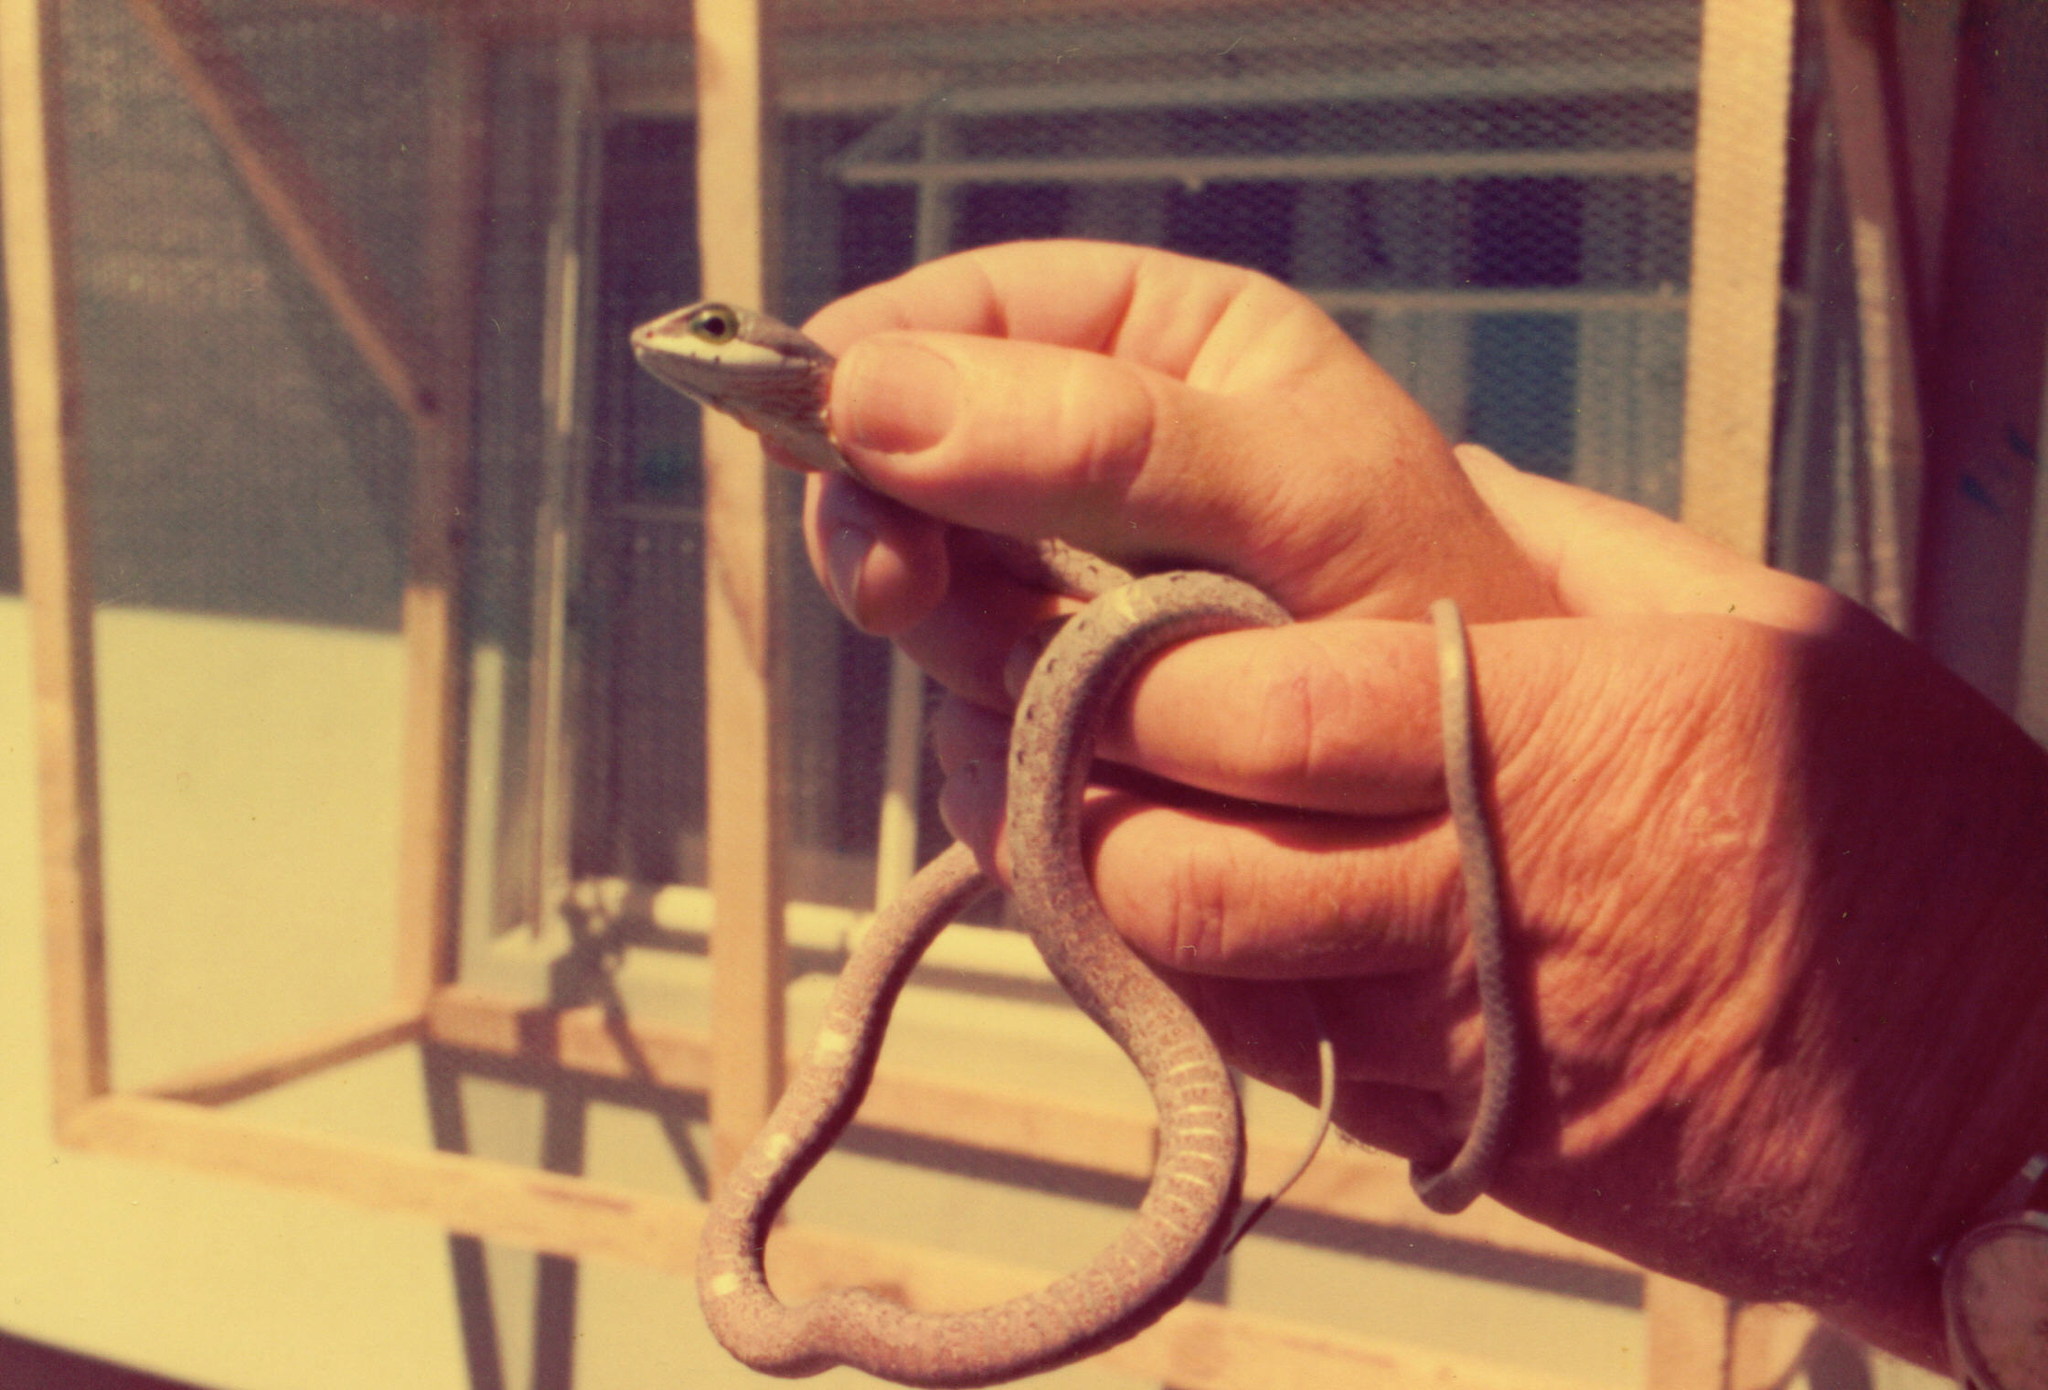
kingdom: Animalia
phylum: Chordata
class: Squamata
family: Colubridae
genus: Dispholidus
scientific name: Dispholidus typus
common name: Boomslang
